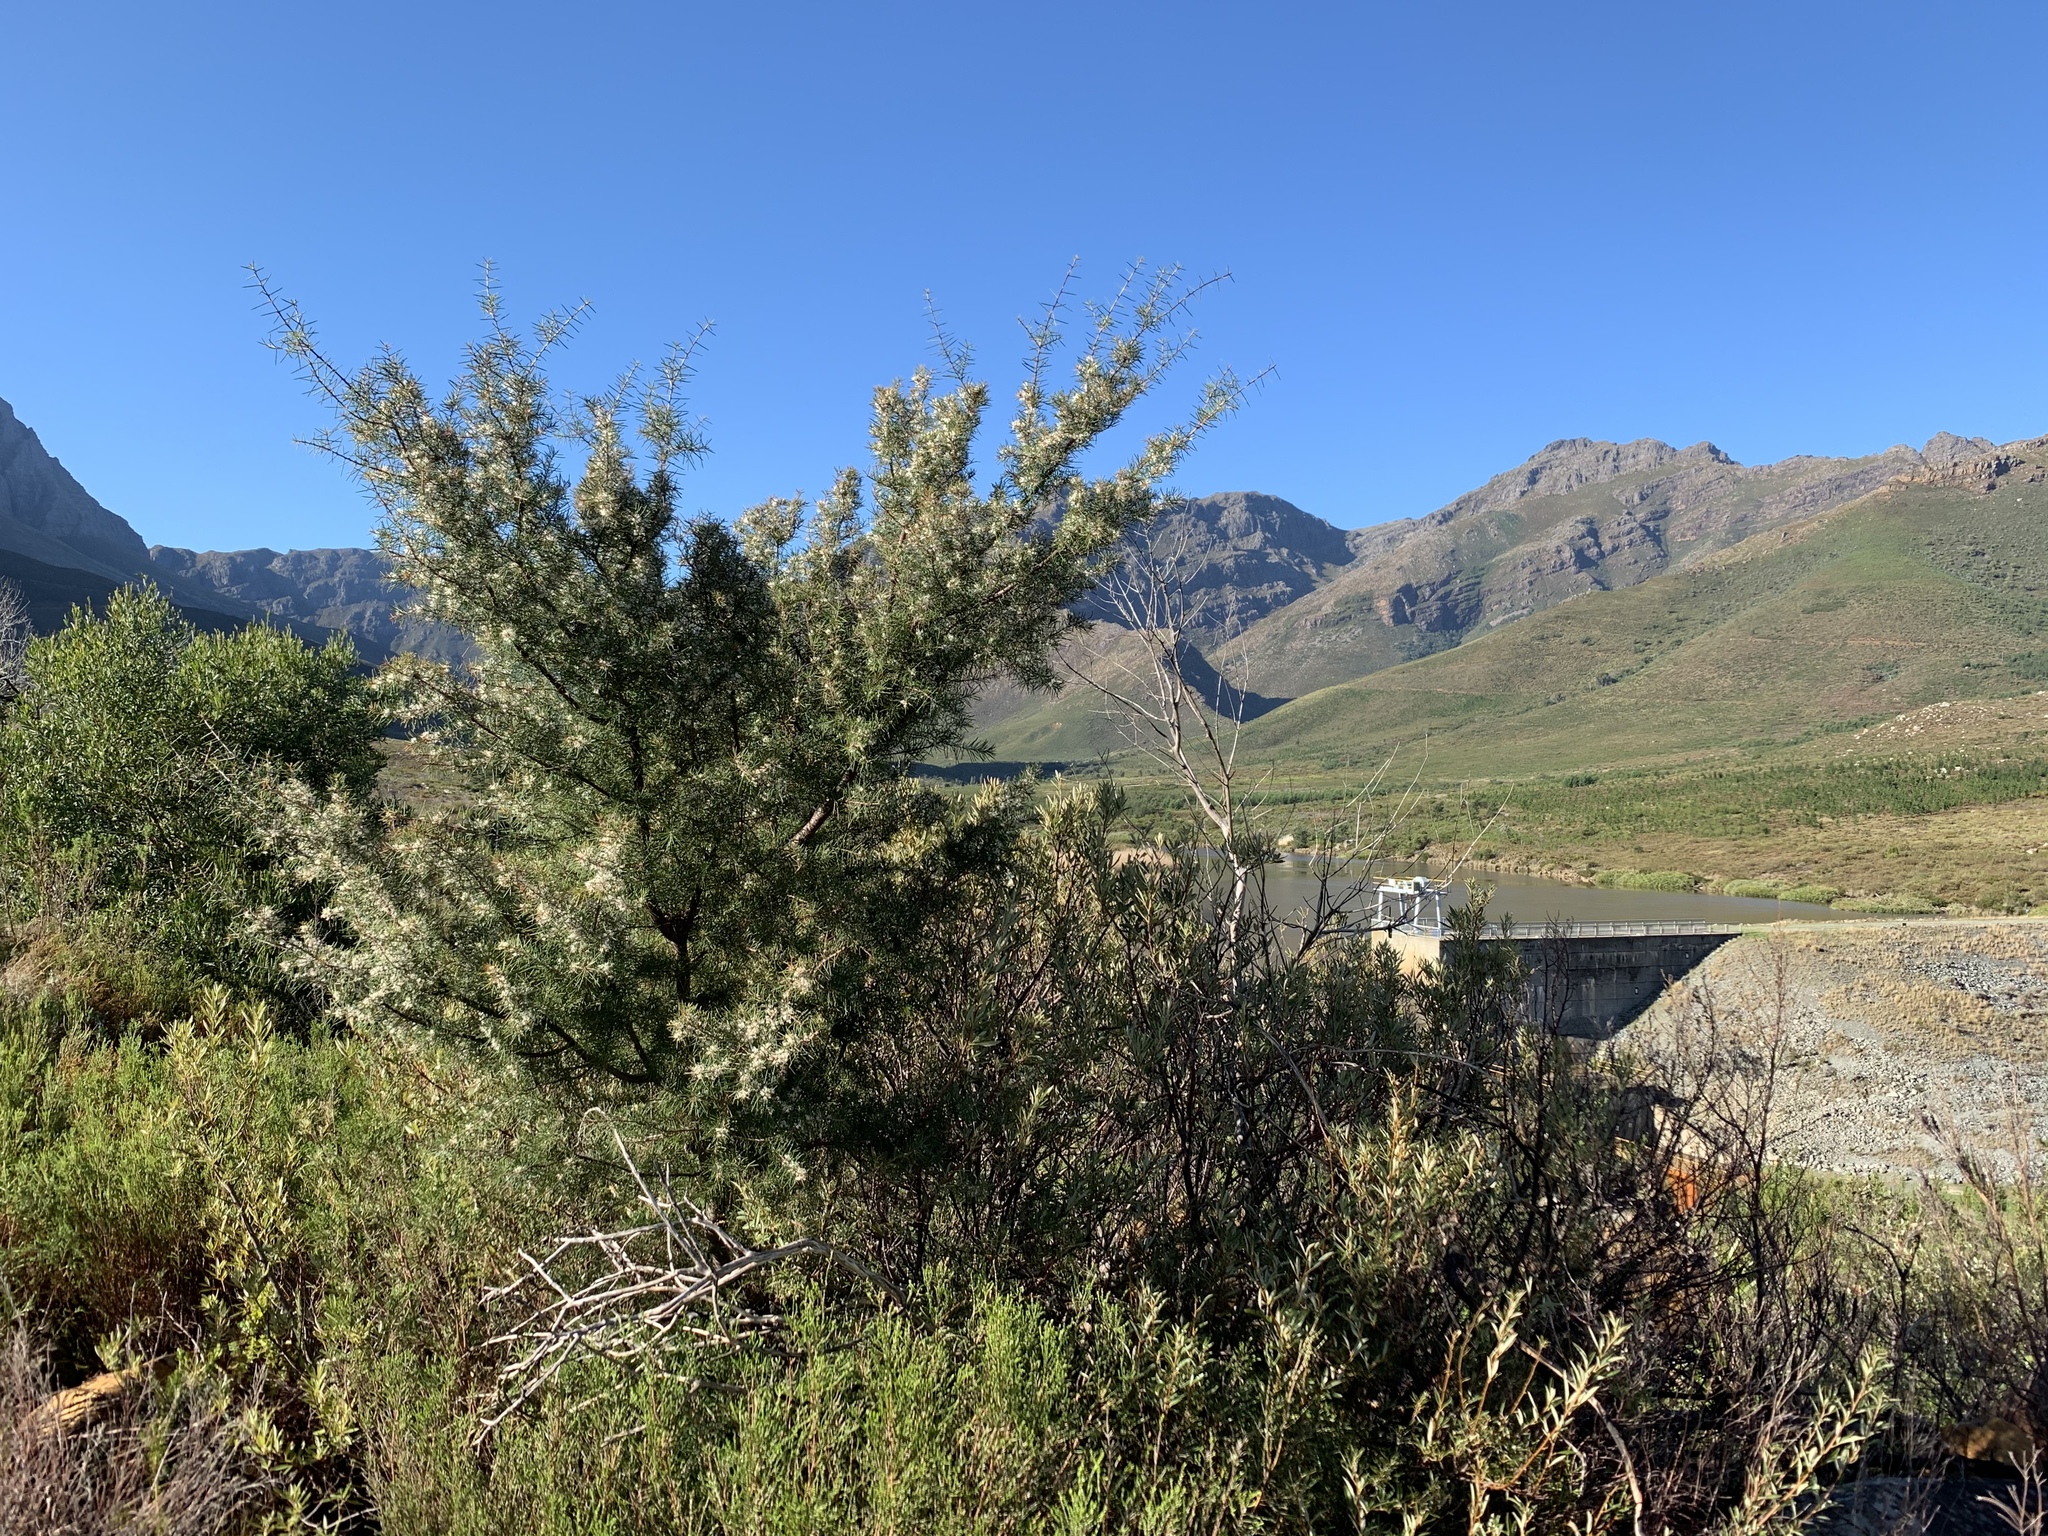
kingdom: Plantae
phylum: Tracheophyta
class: Magnoliopsida
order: Proteales
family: Proteaceae
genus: Hakea
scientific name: Hakea sericea
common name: Needle bush
